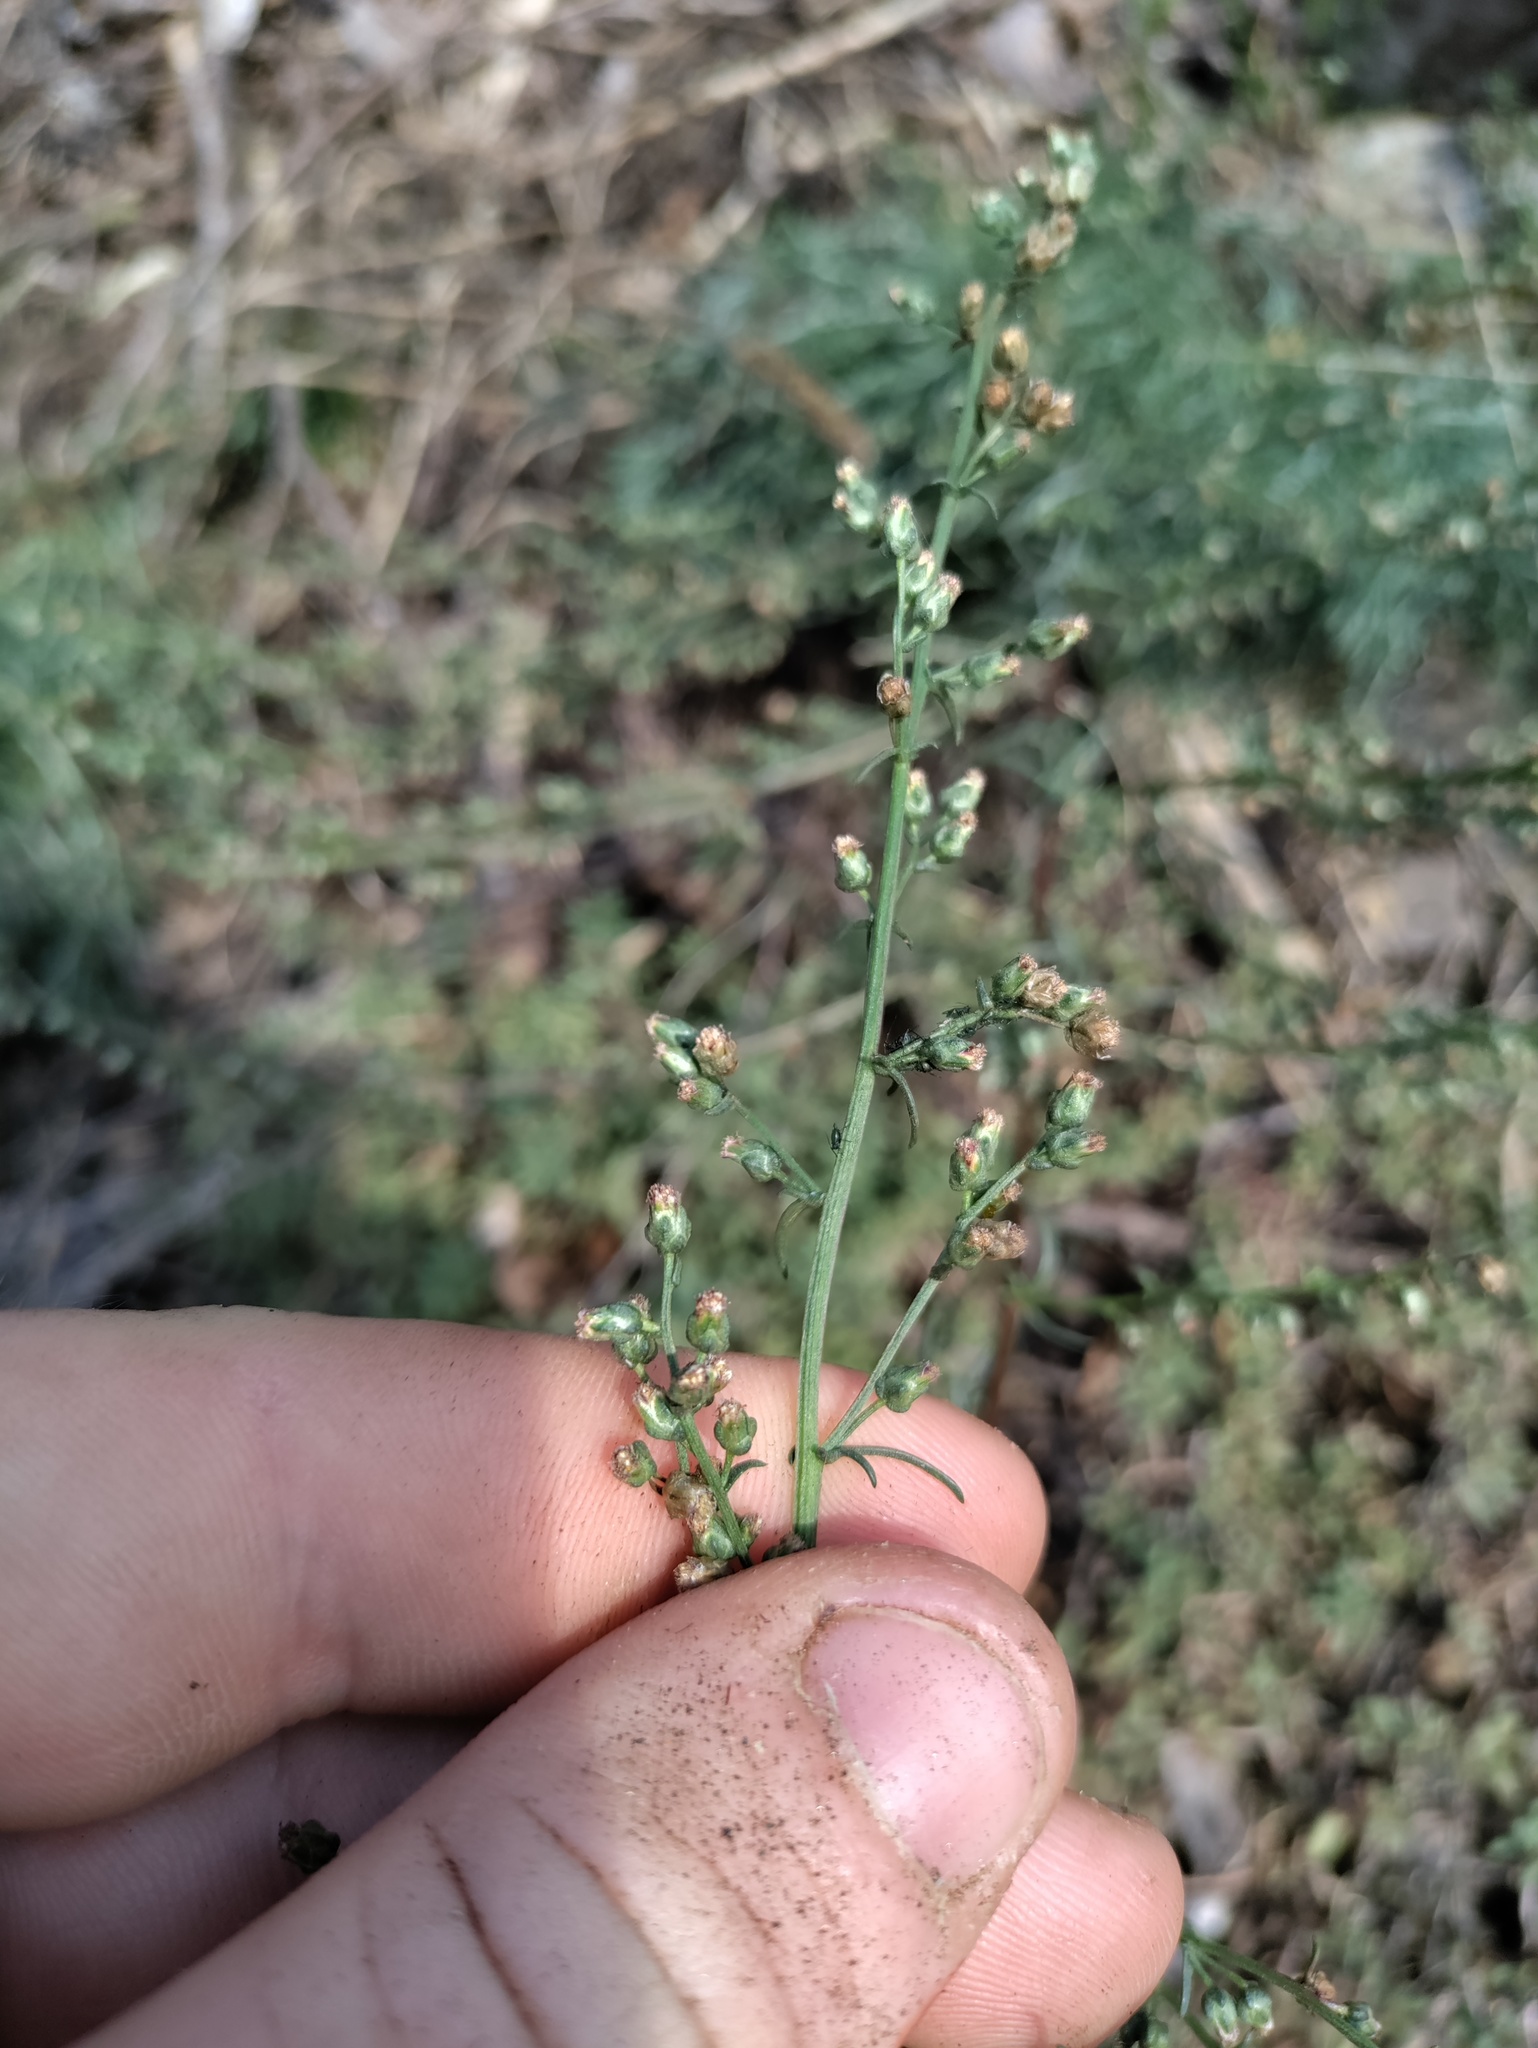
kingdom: Plantae
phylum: Tracheophyta
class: Magnoliopsida
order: Asterales
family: Asteraceae
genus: Artemisia
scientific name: Artemisia campestris
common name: Field wormwood
